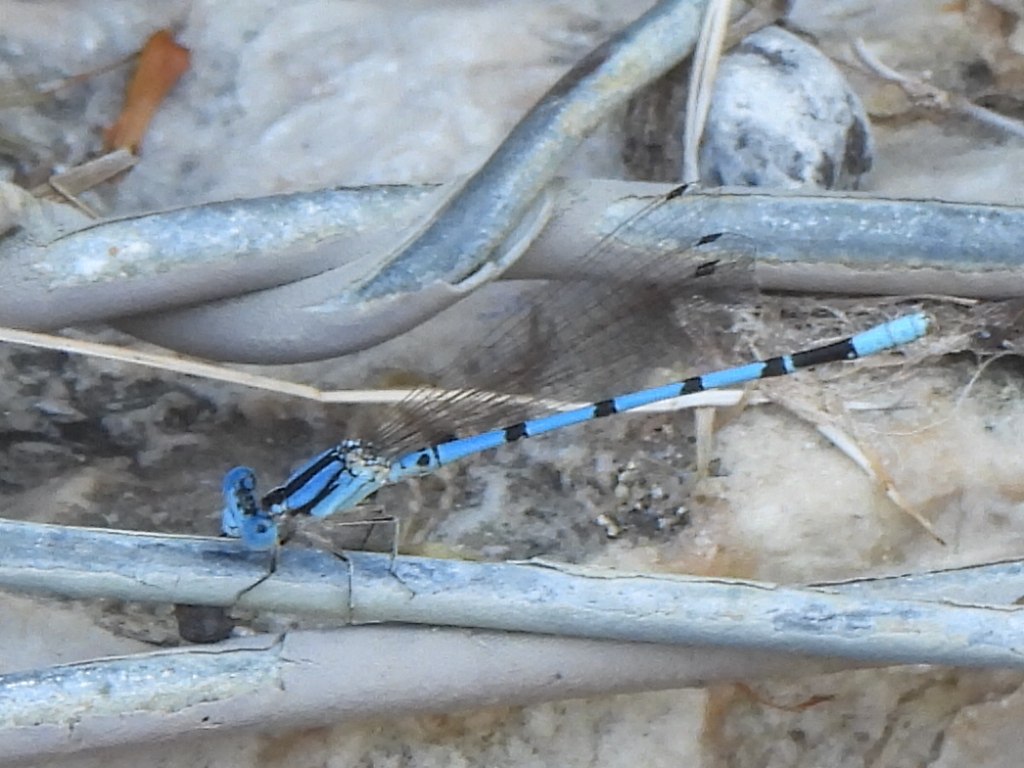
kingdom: Animalia
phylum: Arthropoda
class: Insecta
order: Odonata
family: Coenagrionidae
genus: Argia
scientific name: Argia nahuana
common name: Aztec dancer
